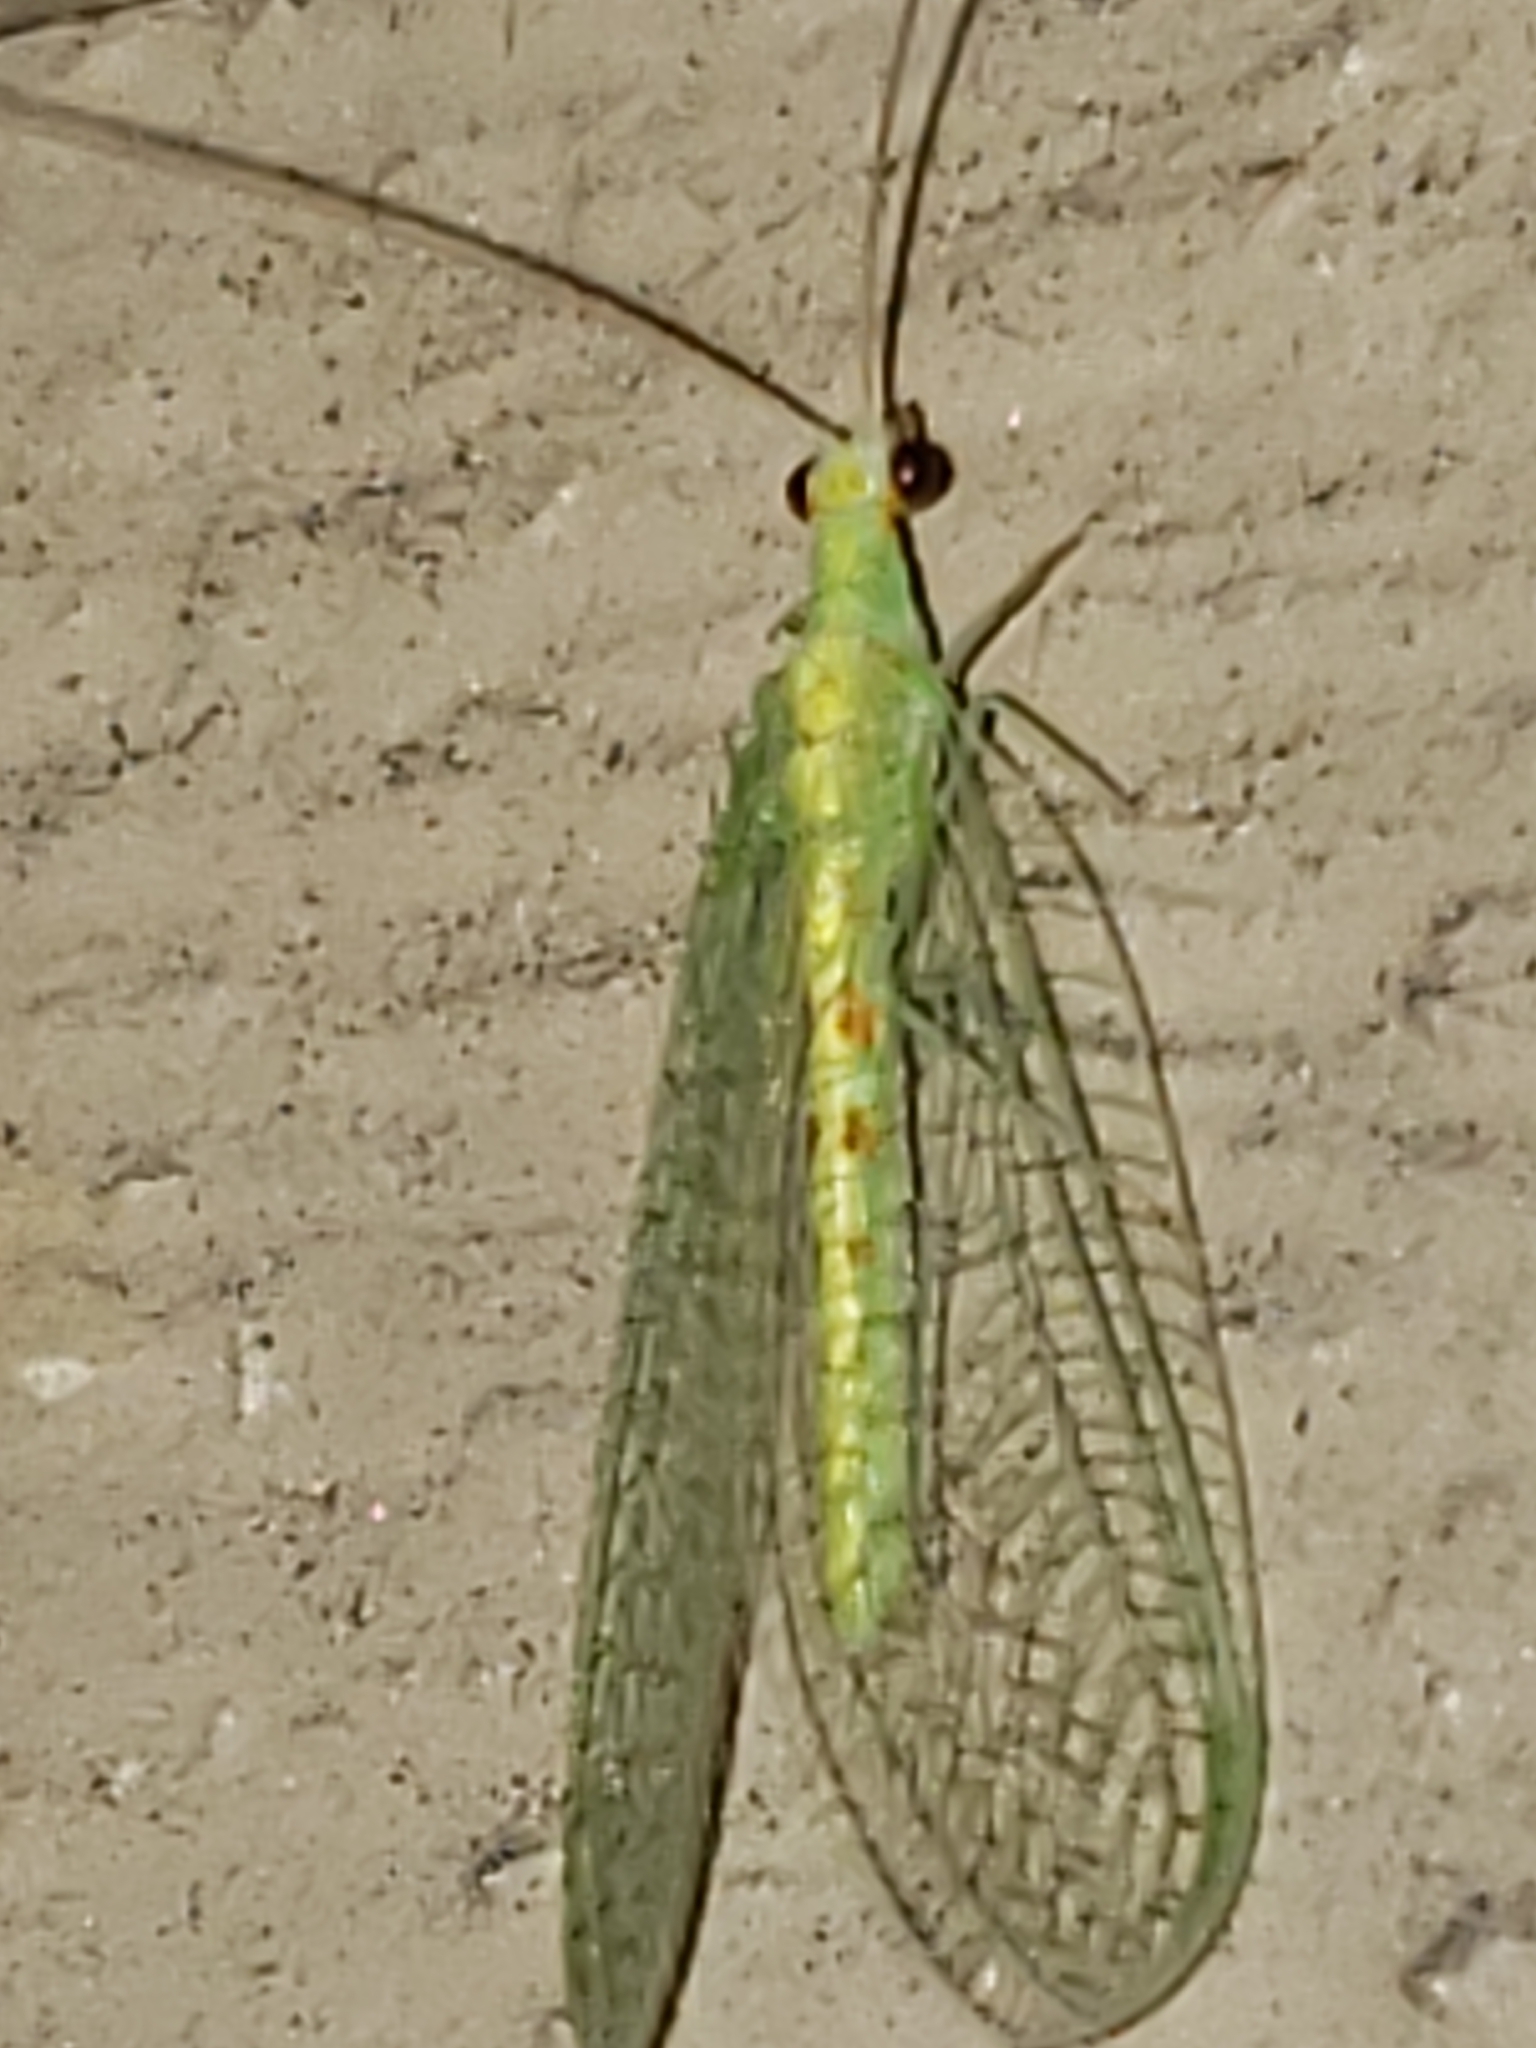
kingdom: Animalia
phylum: Arthropoda
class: Insecta
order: Neuroptera
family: Chrysopidae
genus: Chrysopa
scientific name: Chrysopa quadripunctata
